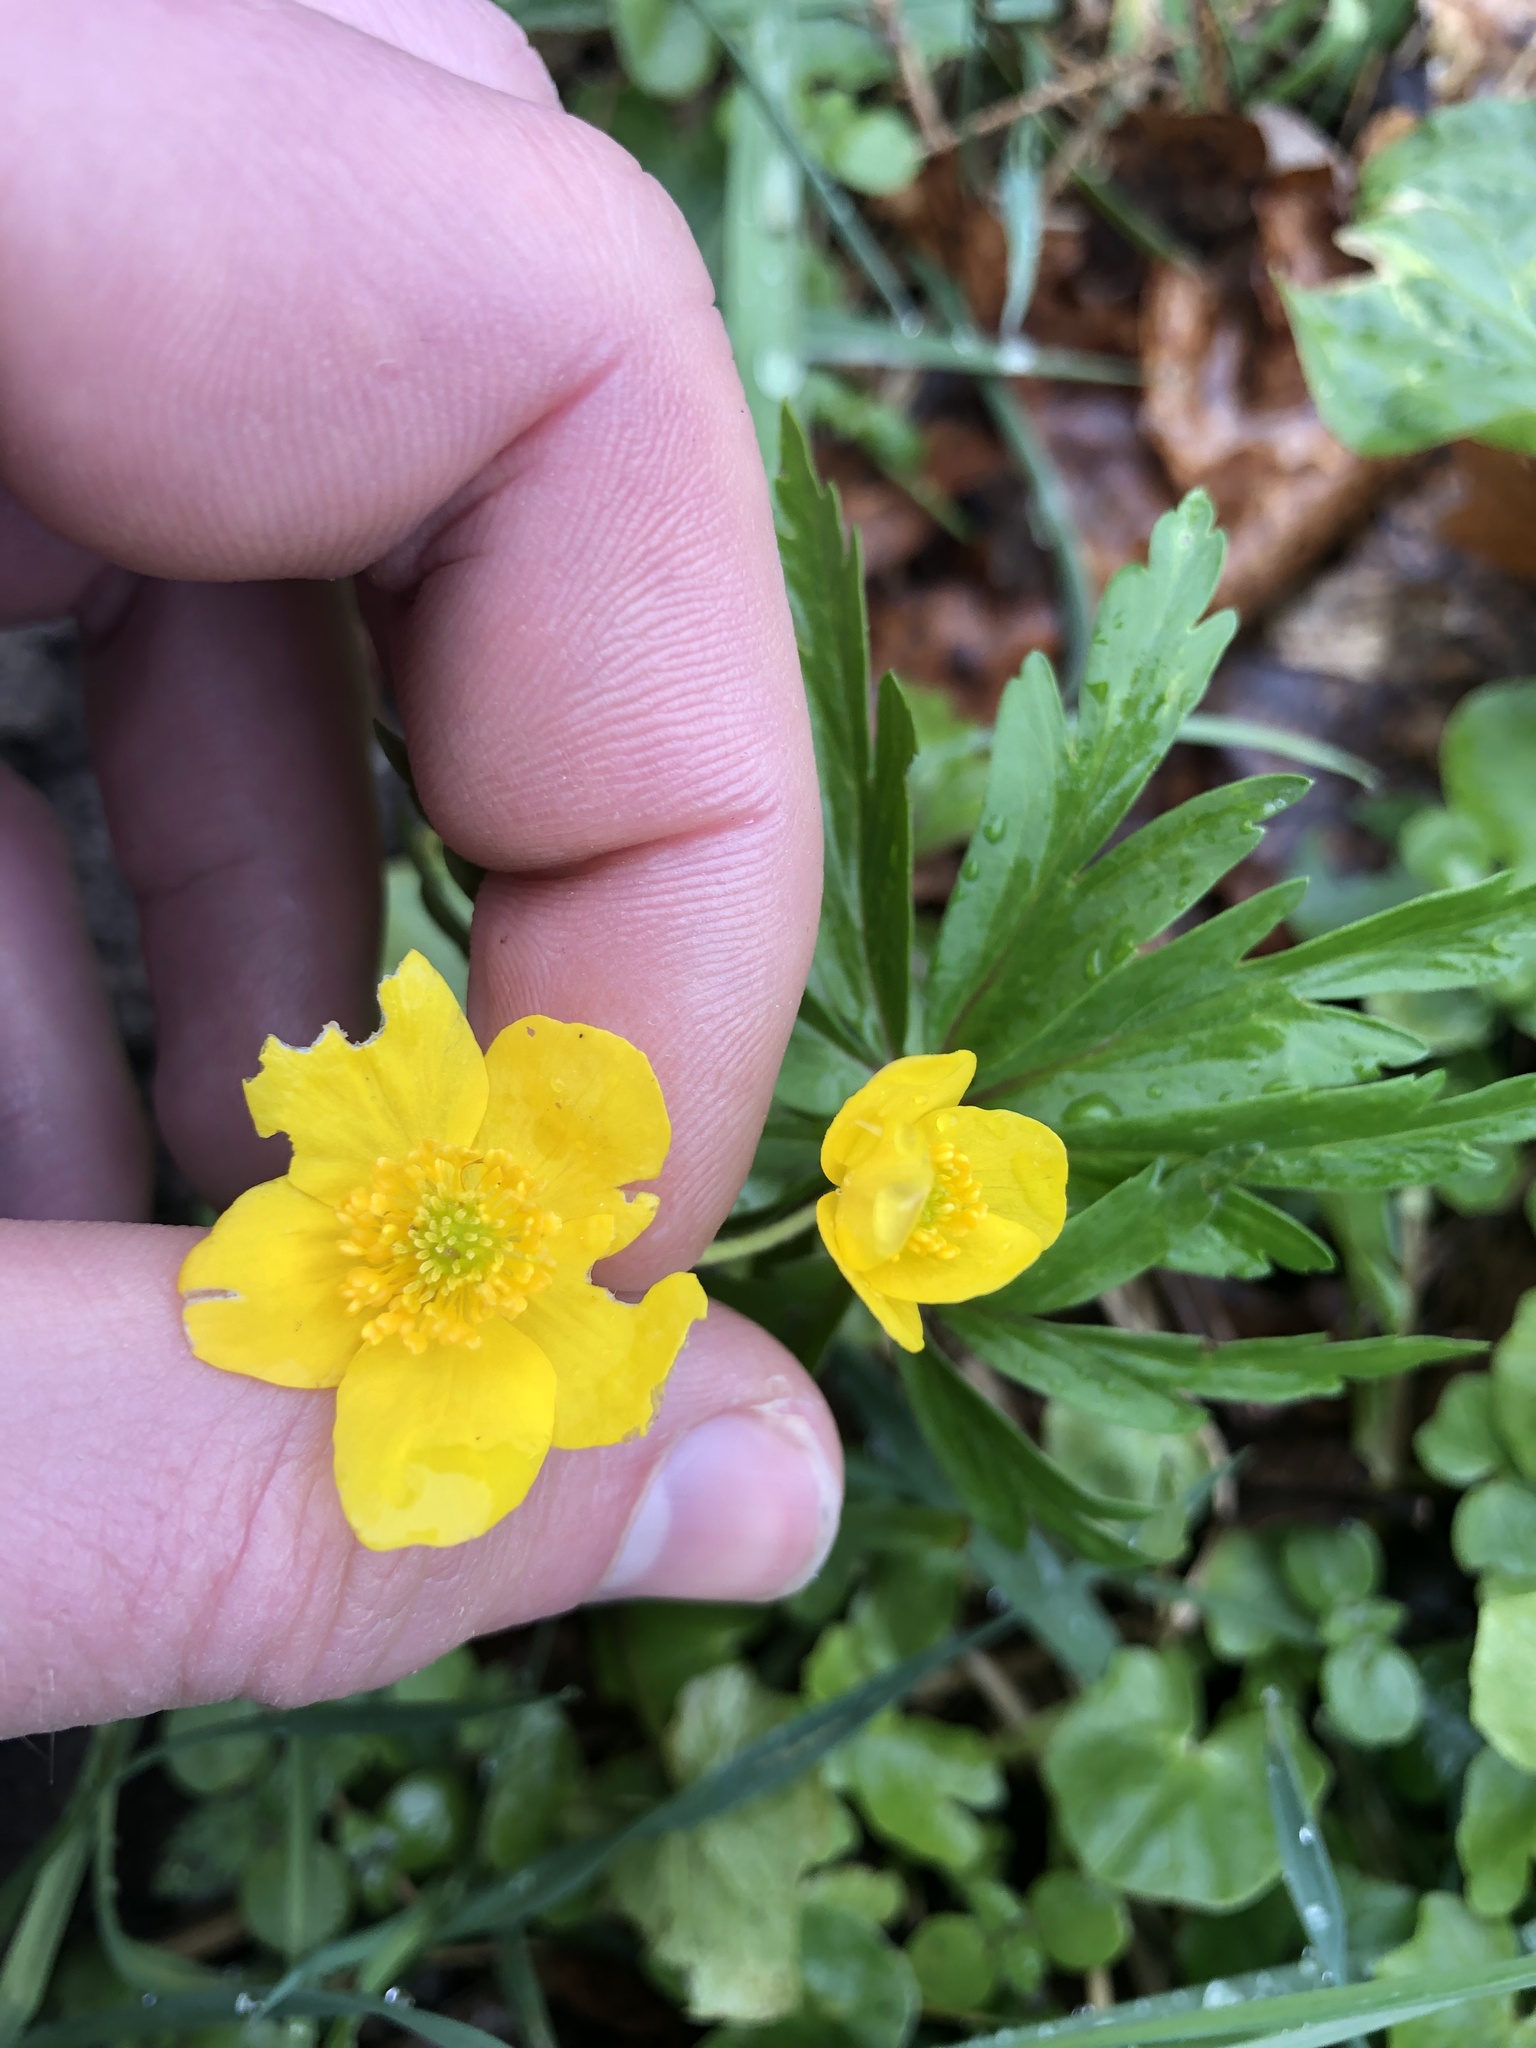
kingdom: Plantae
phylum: Tracheophyta
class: Magnoliopsida
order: Ranunculales
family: Ranunculaceae
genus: Anemone
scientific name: Anemone ranunculoides
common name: Yellow anemone
